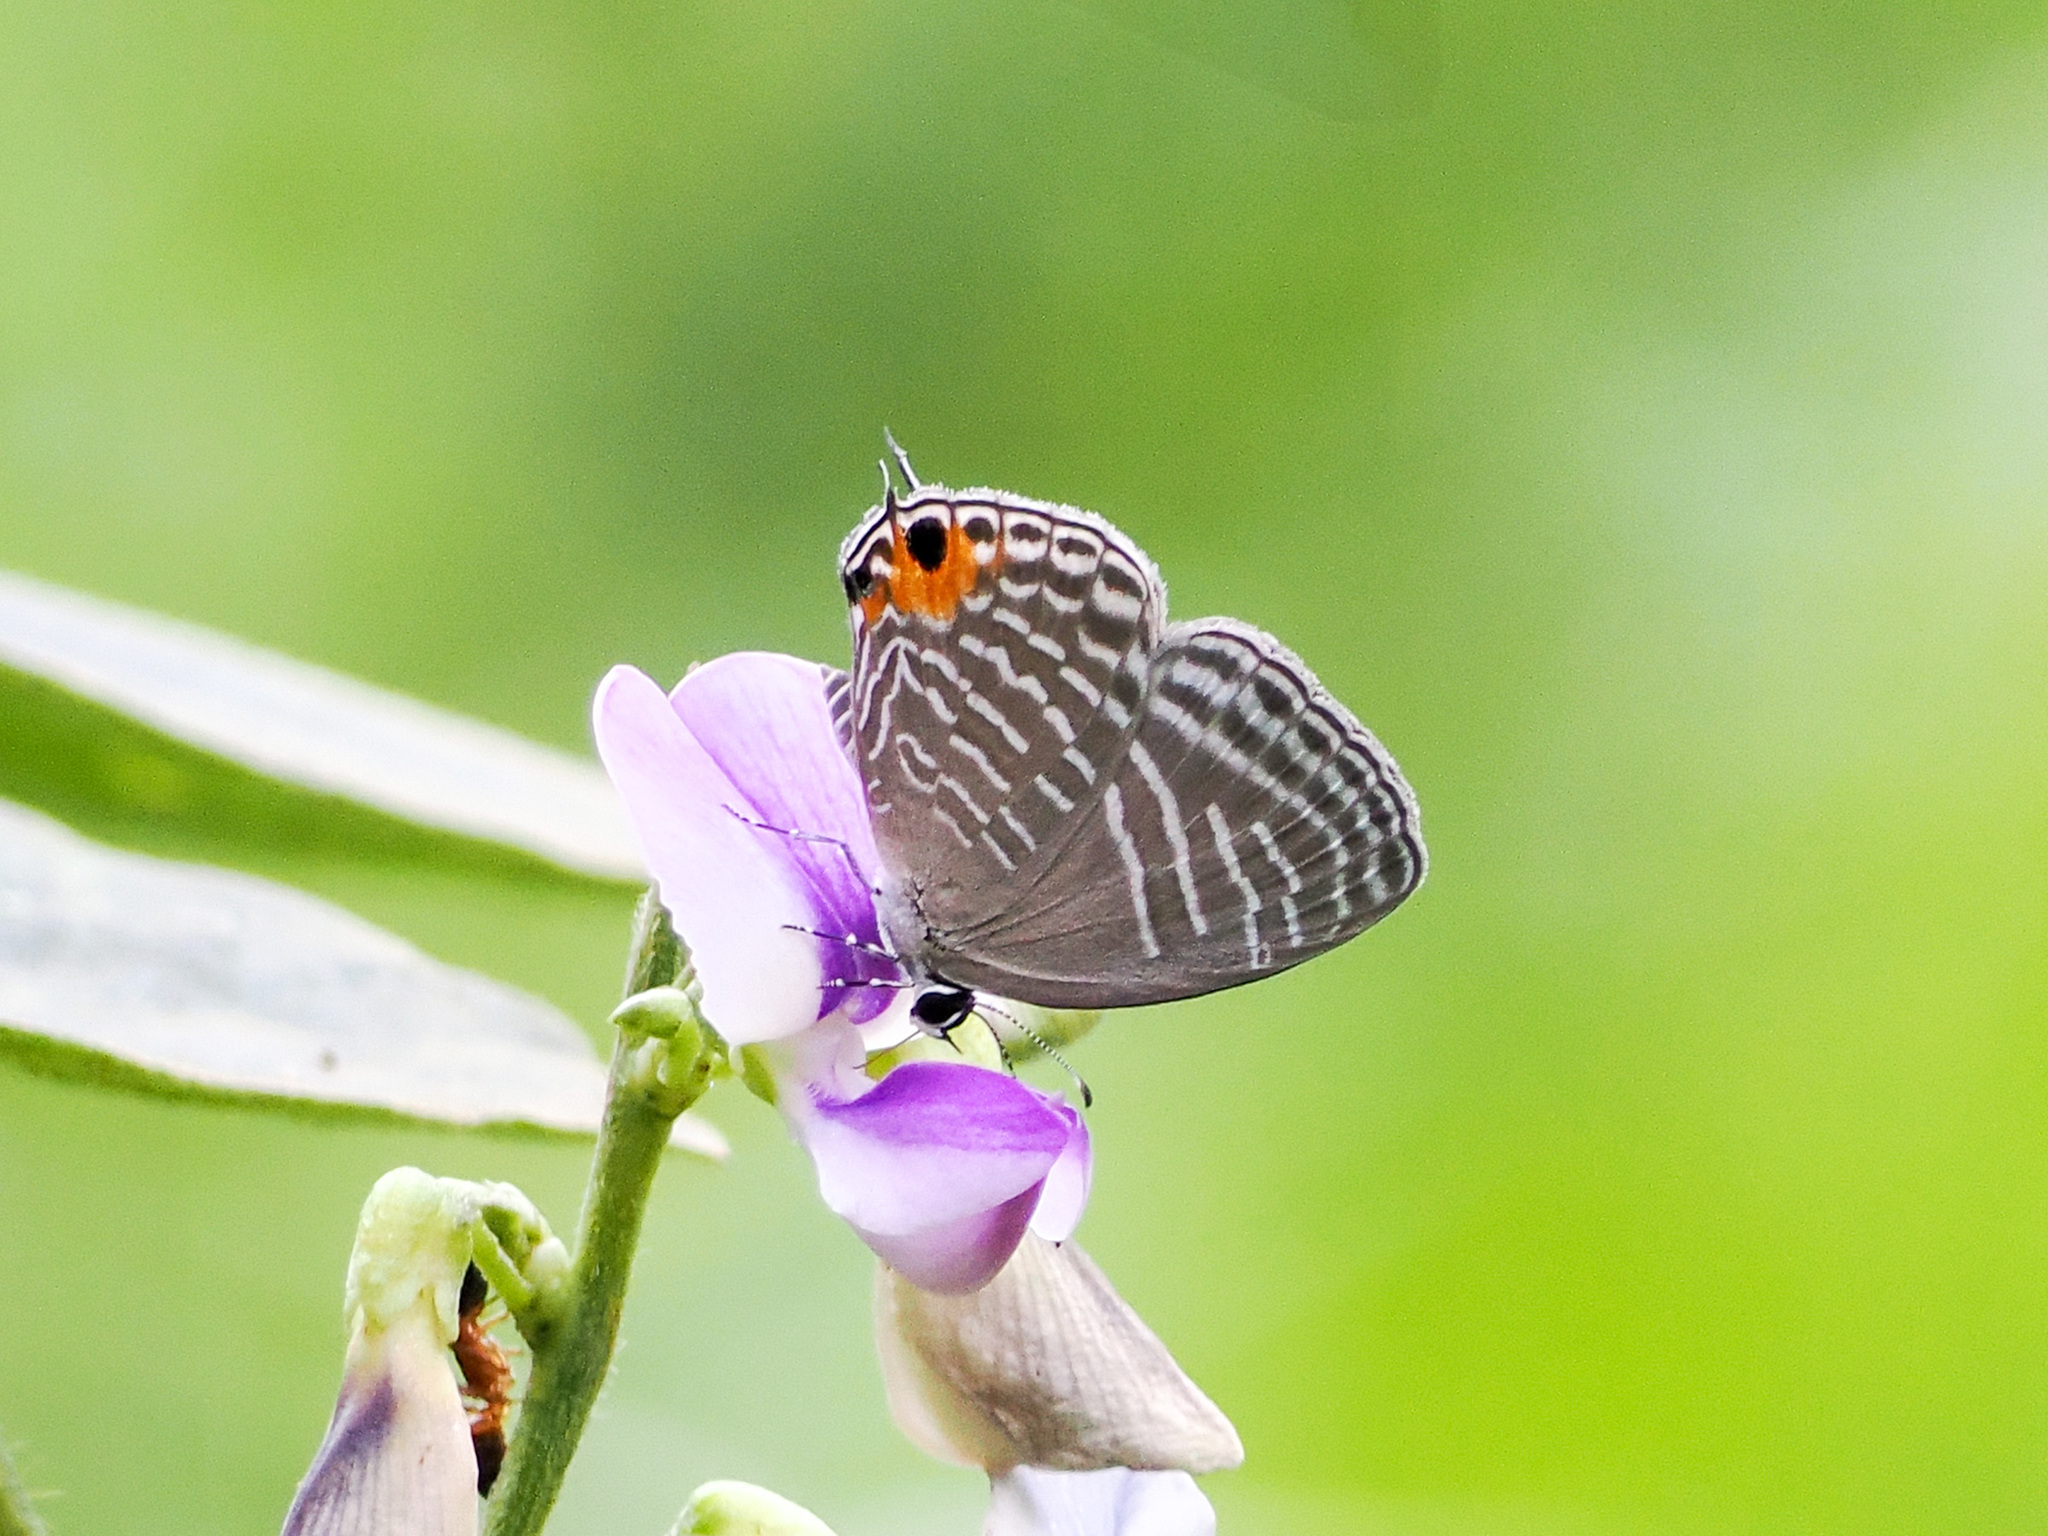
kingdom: Animalia
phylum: Arthropoda
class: Insecta
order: Lepidoptera
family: Lycaenidae
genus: Jamides
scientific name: Jamides alecto
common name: Metallic cerulean
